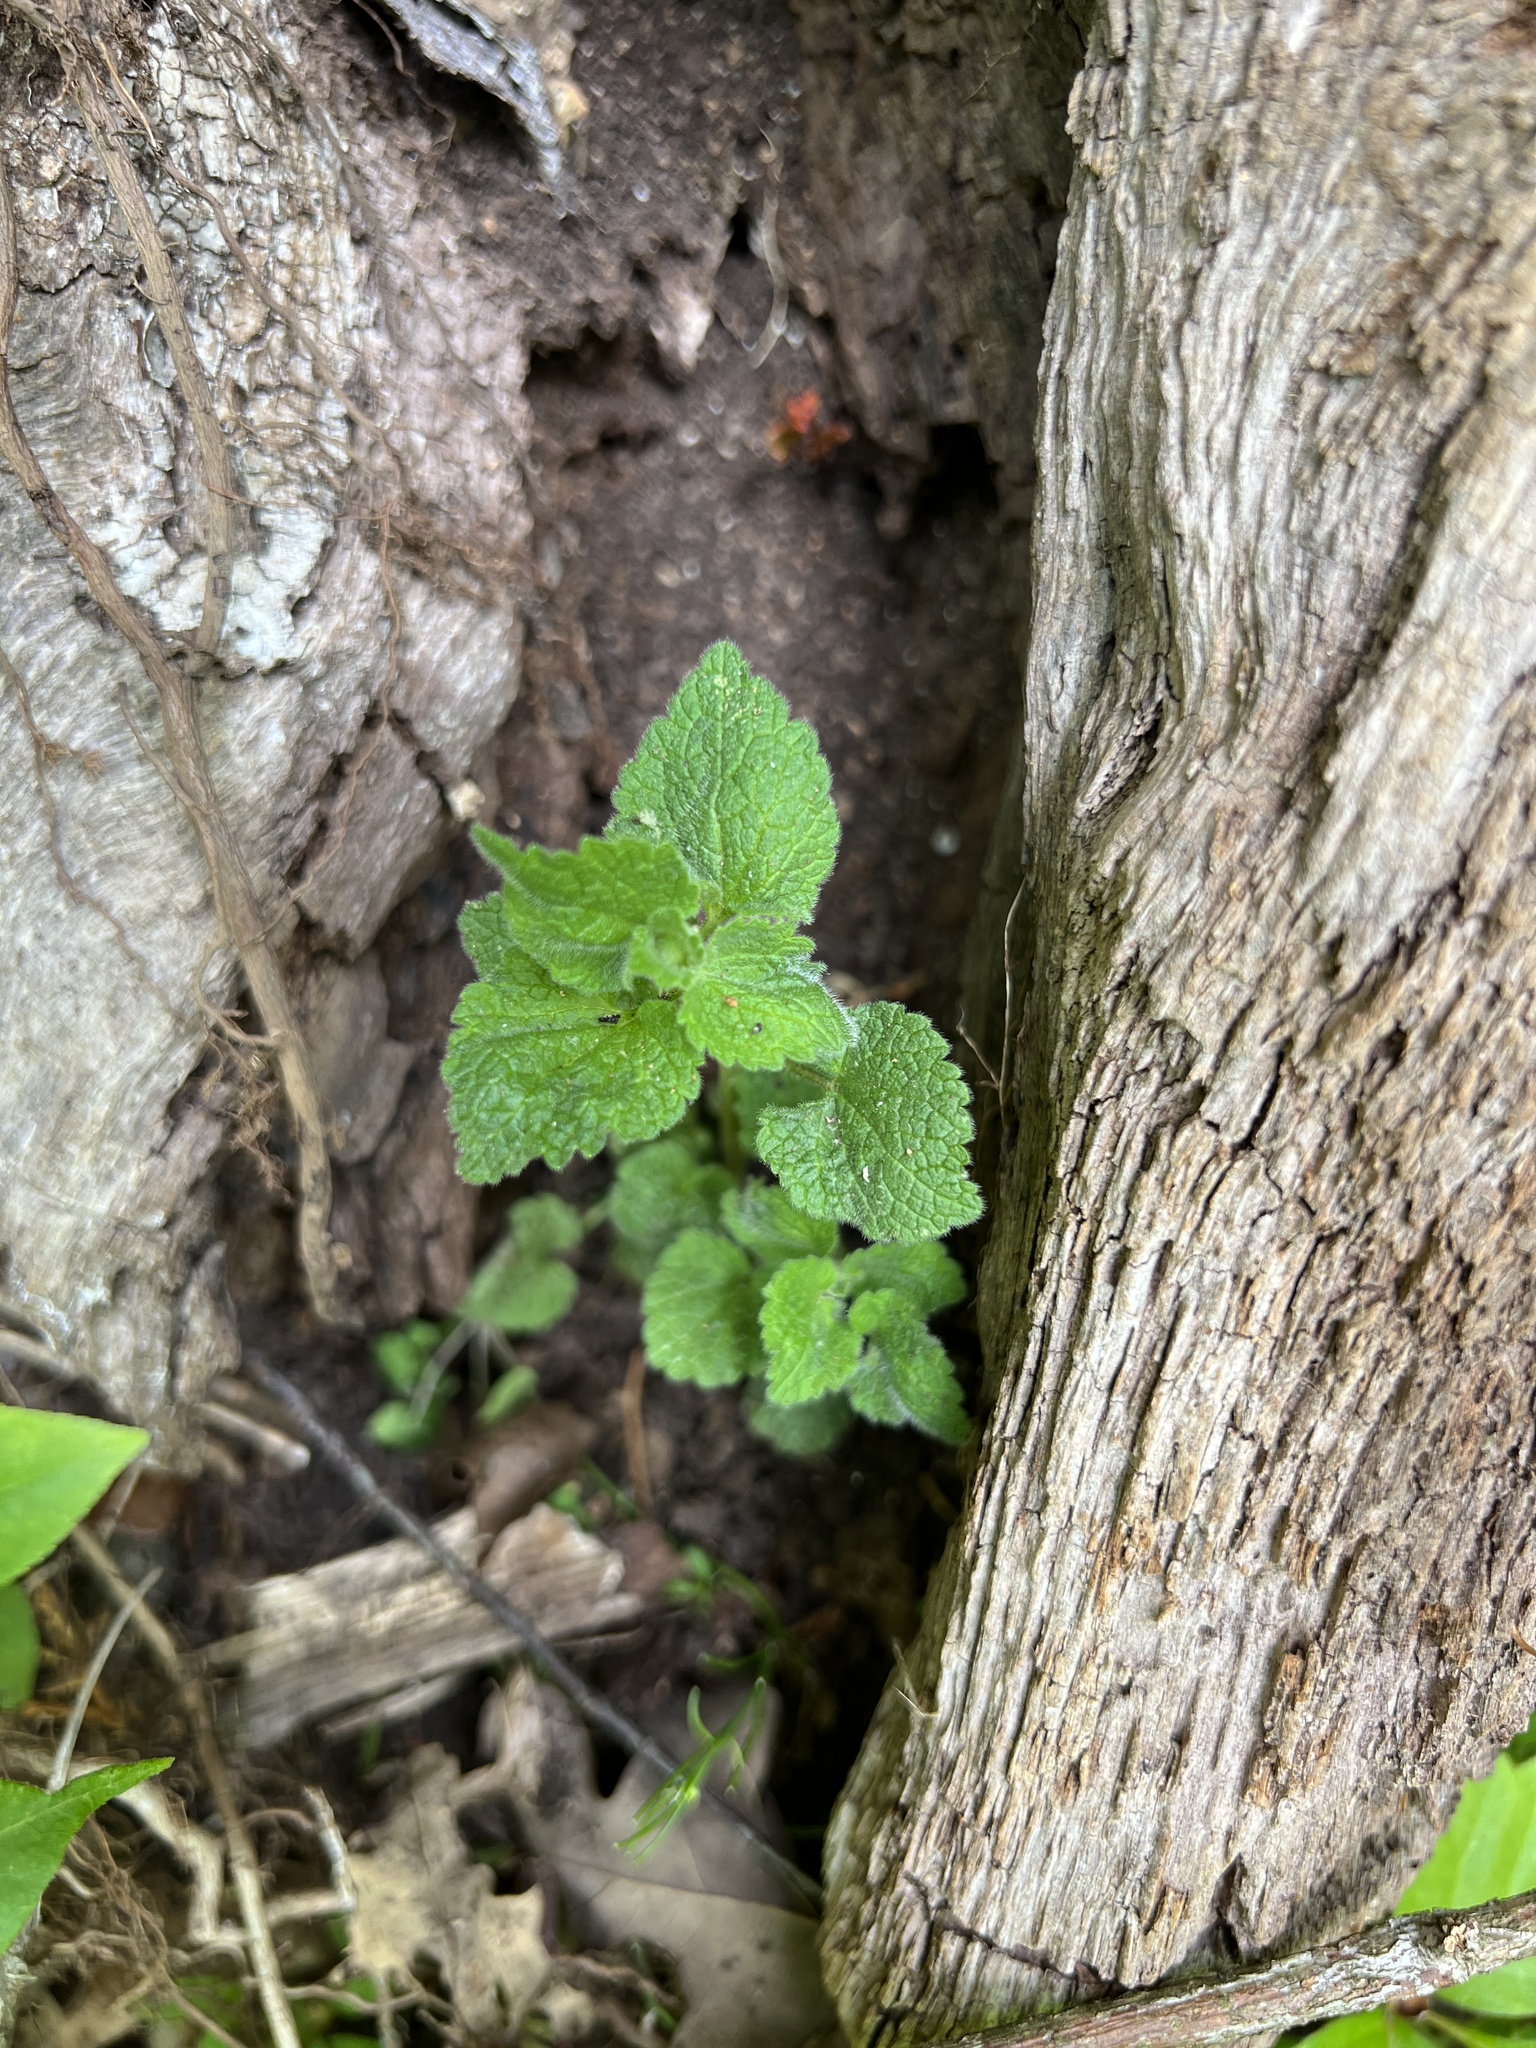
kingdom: Plantae
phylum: Tracheophyta
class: Magnoliopsida
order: Lamiales
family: Lamiaceae
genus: Lamium
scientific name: Lamium purpureum
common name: Red dead-nettle
